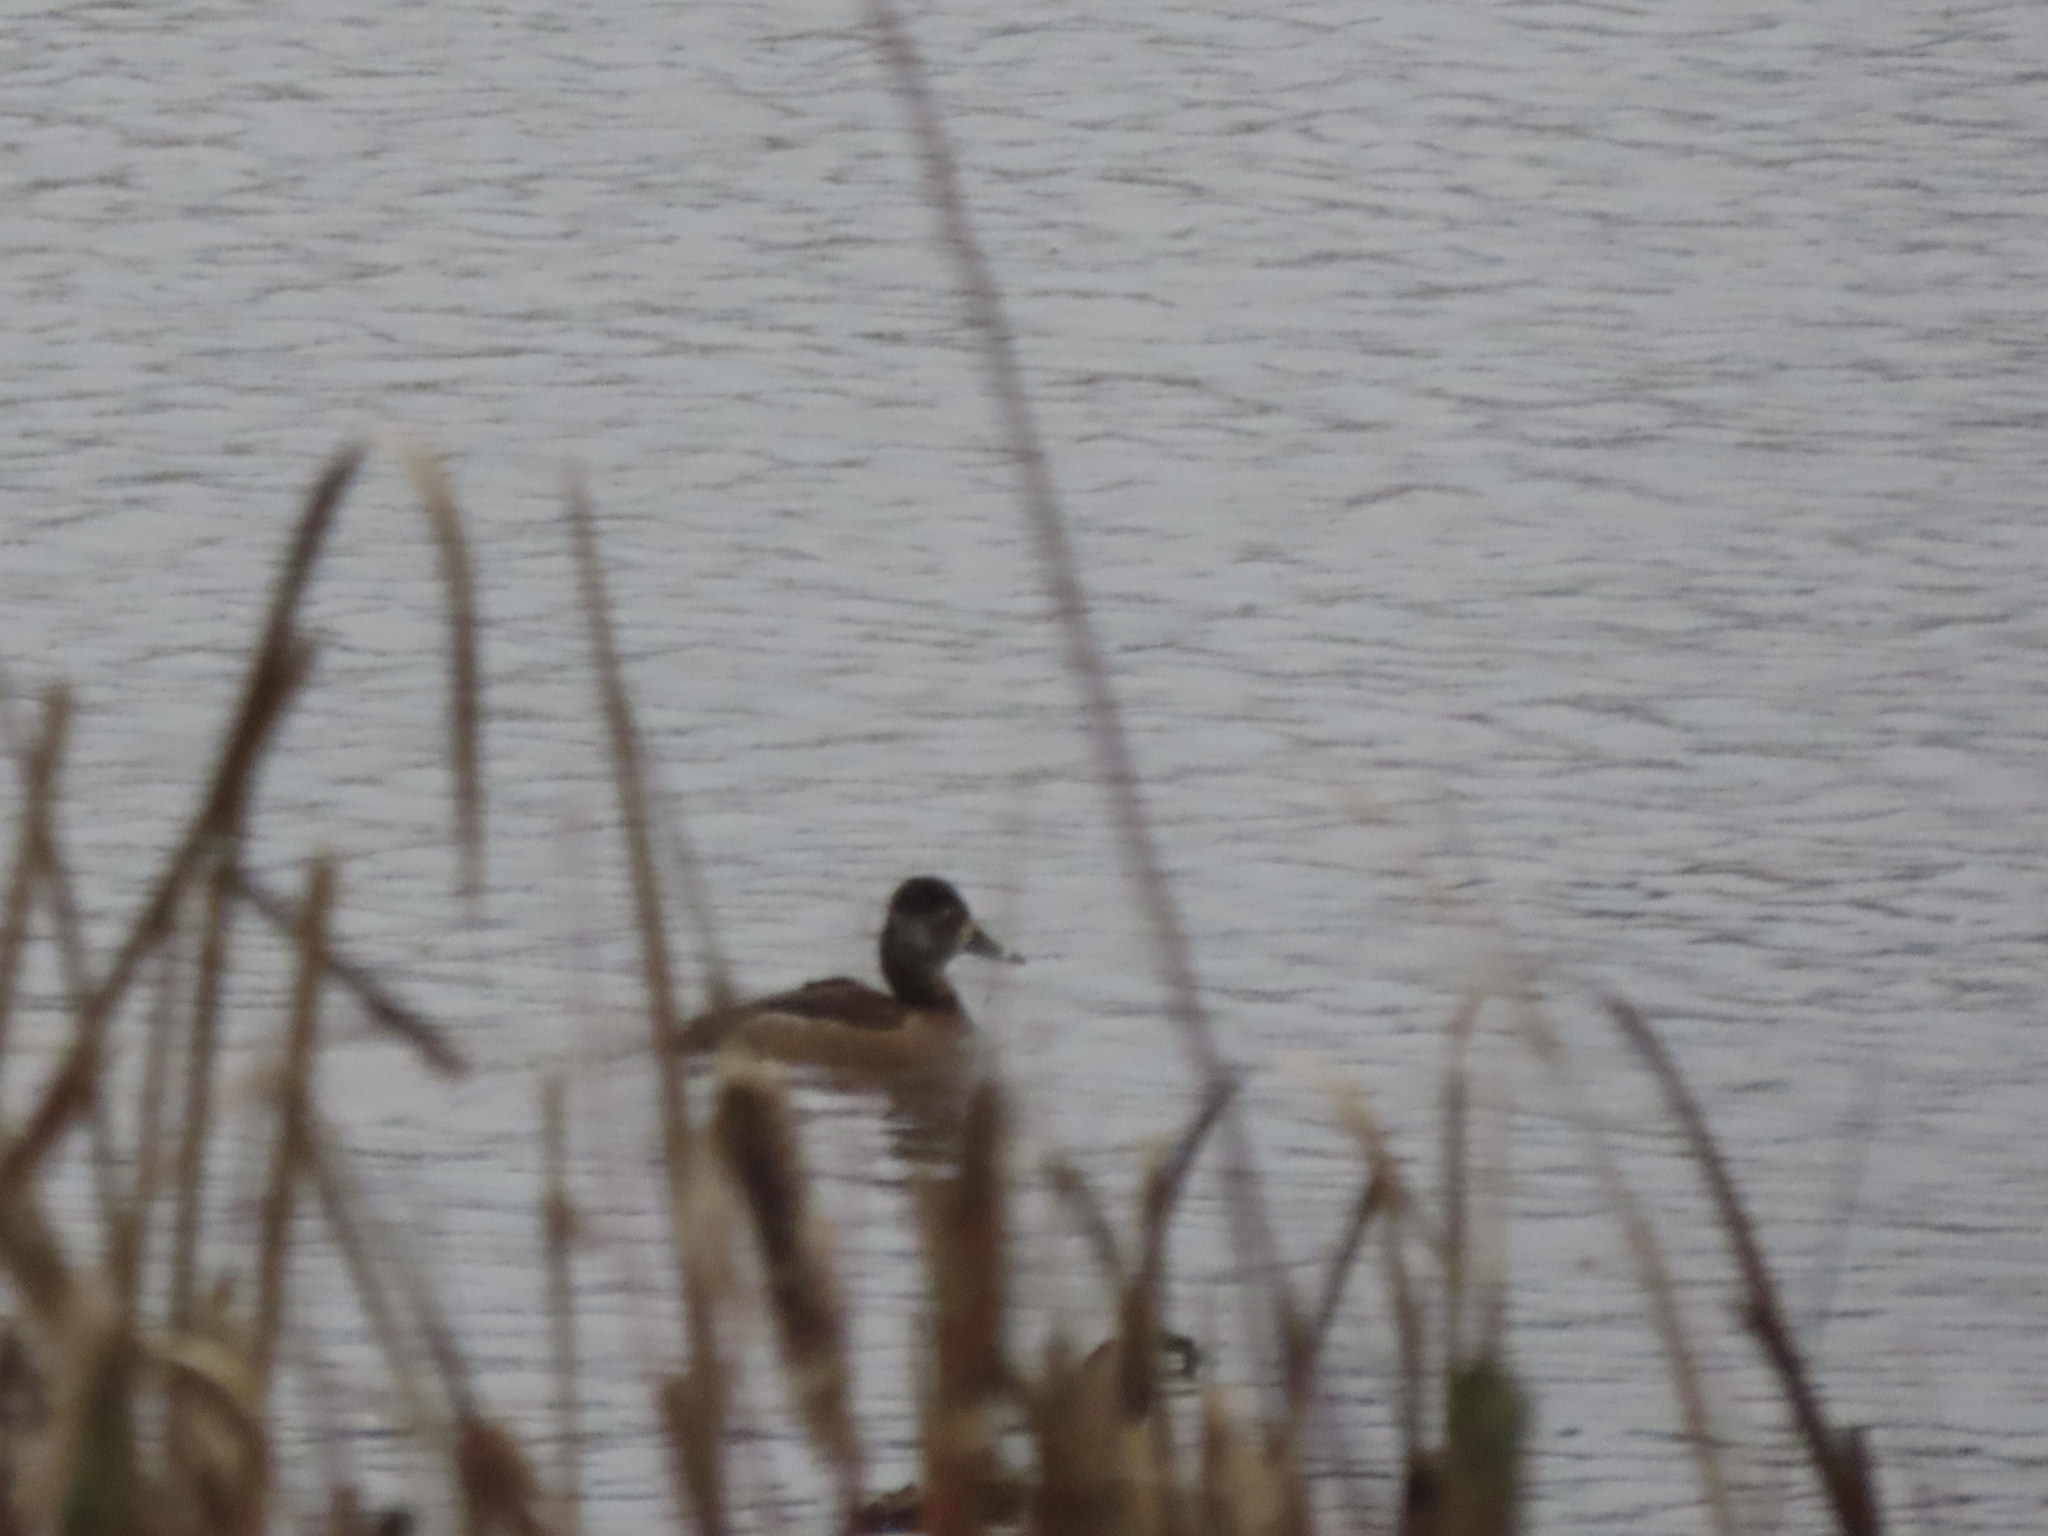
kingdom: Animalia
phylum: Chordata
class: Aves
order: Anseriformes
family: Anatidae
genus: Aythya
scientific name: Aythya collaris
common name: Ring-necked duck
